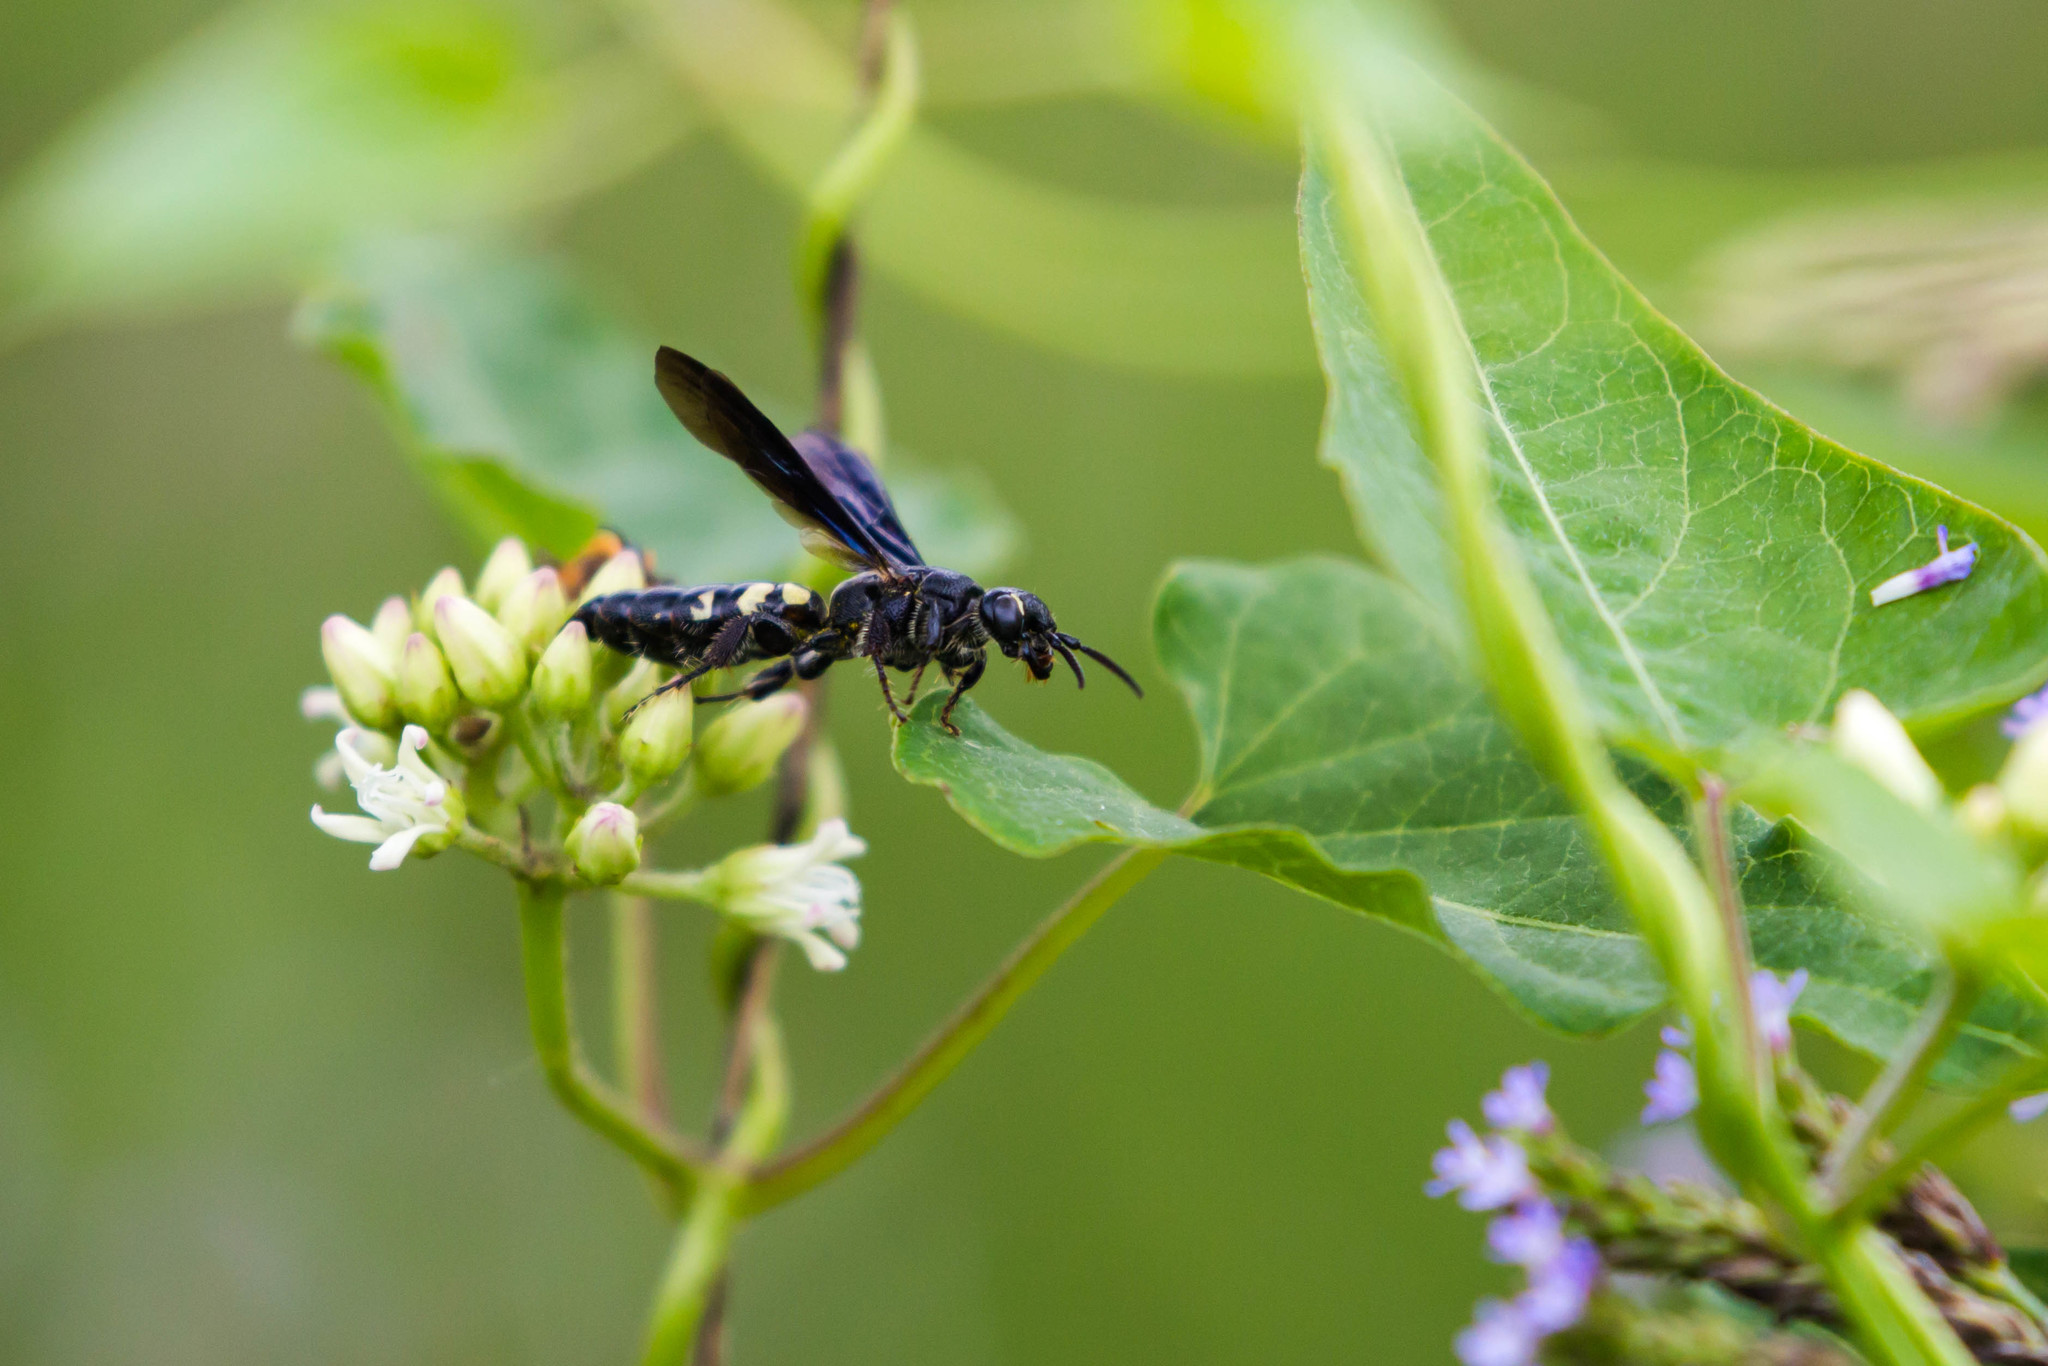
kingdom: Animalia
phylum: Arthropoda
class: Insecta
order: Hymenoptera
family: Tiphiidae
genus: Myzinum
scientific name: Myzinum obscurum
